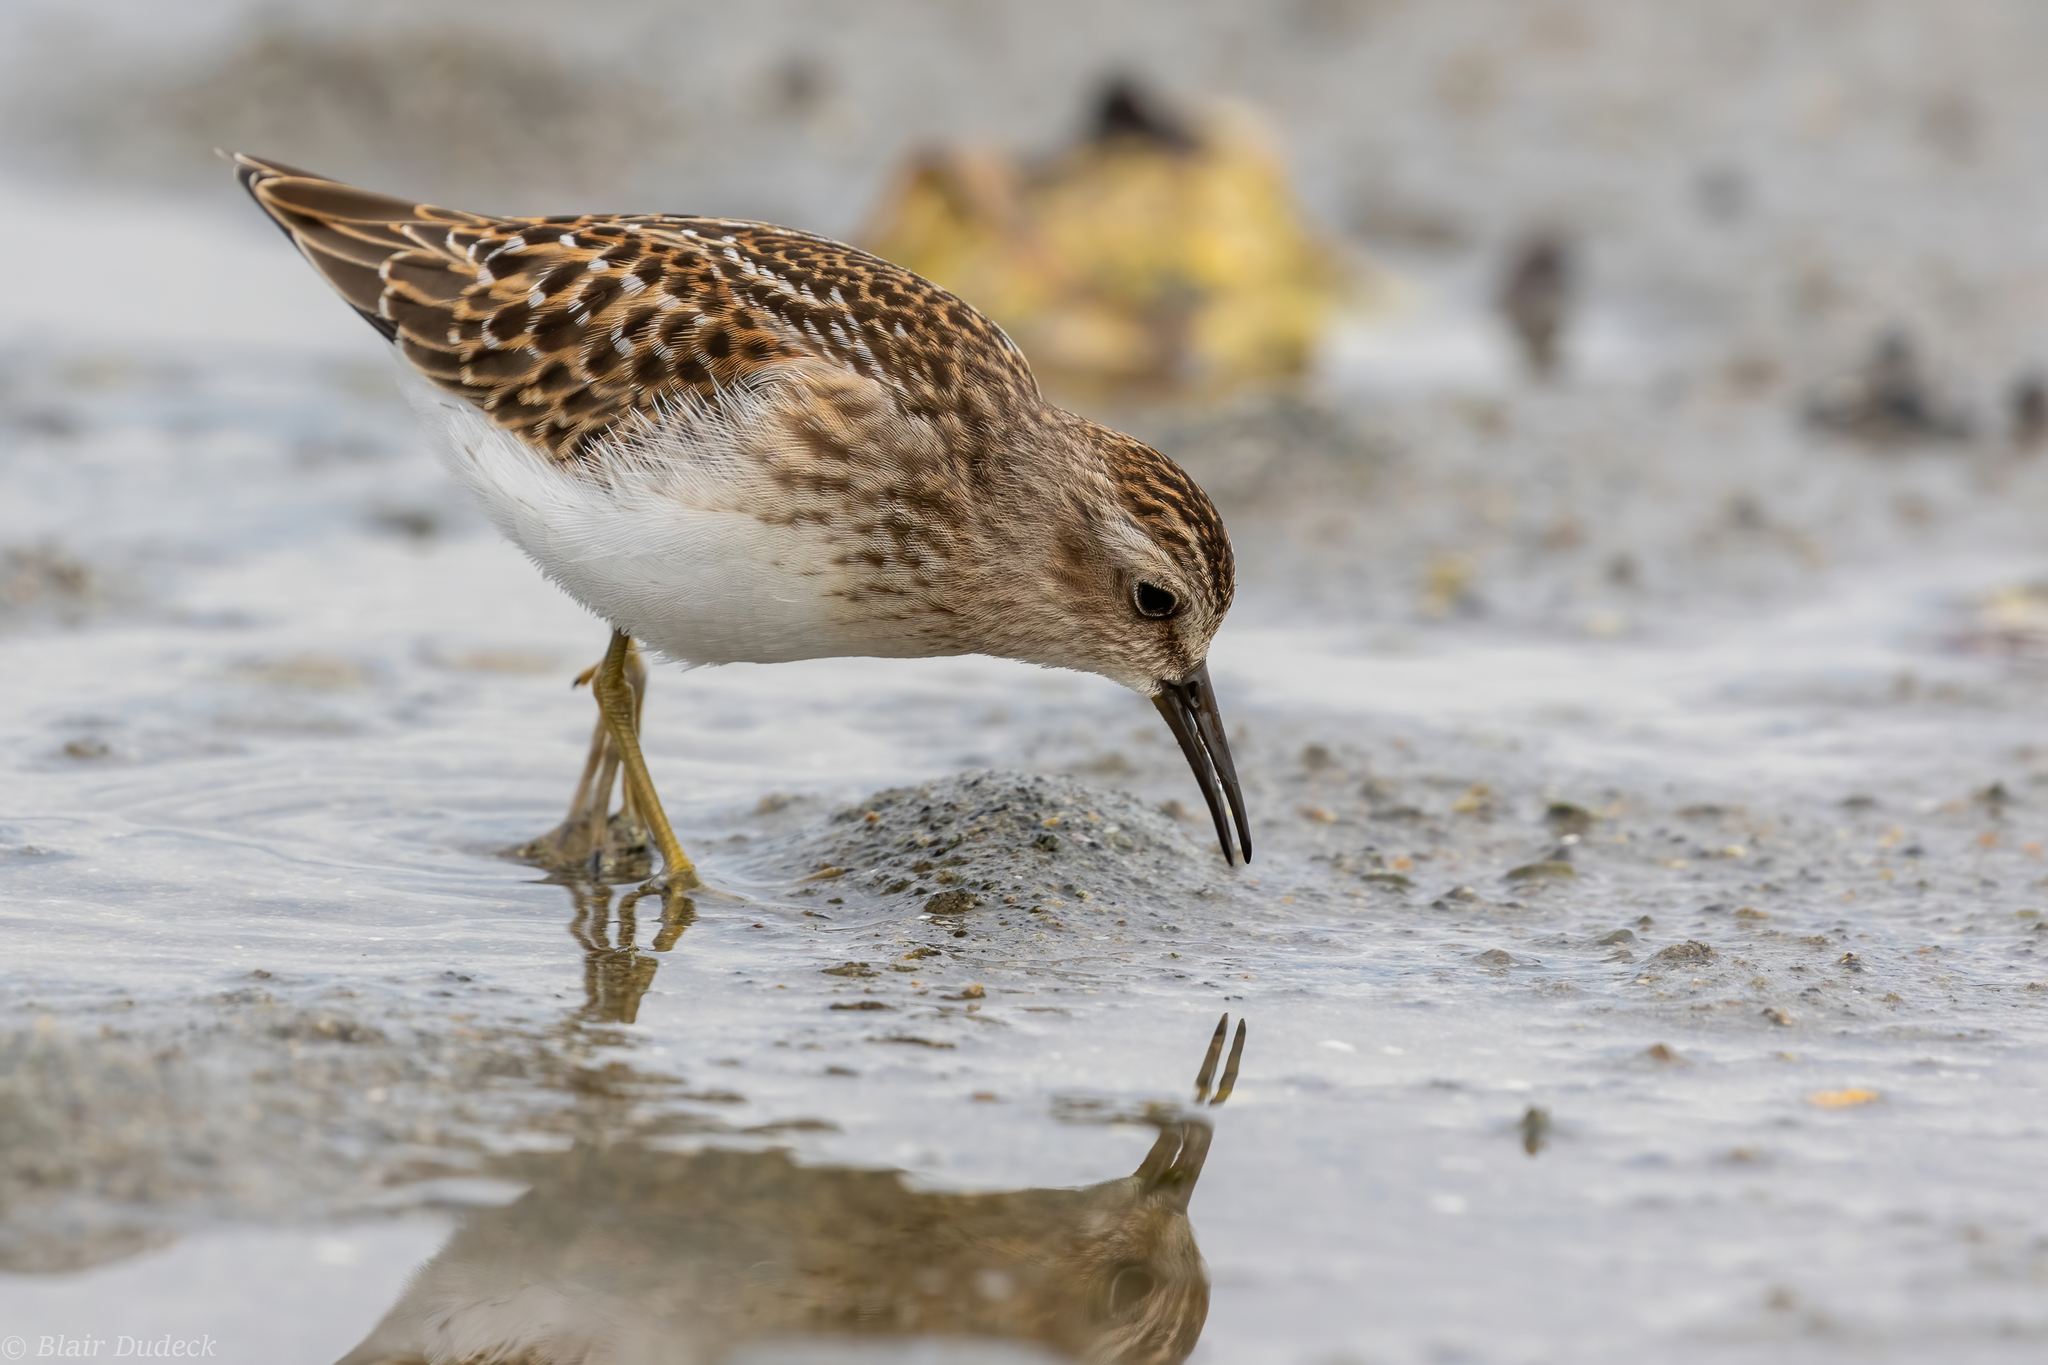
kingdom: Animalia
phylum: Chordata
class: Aves
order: Charadriiformes
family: Scolopacidae
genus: Calidris
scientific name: Calidris minutilla
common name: Least sandpiper
